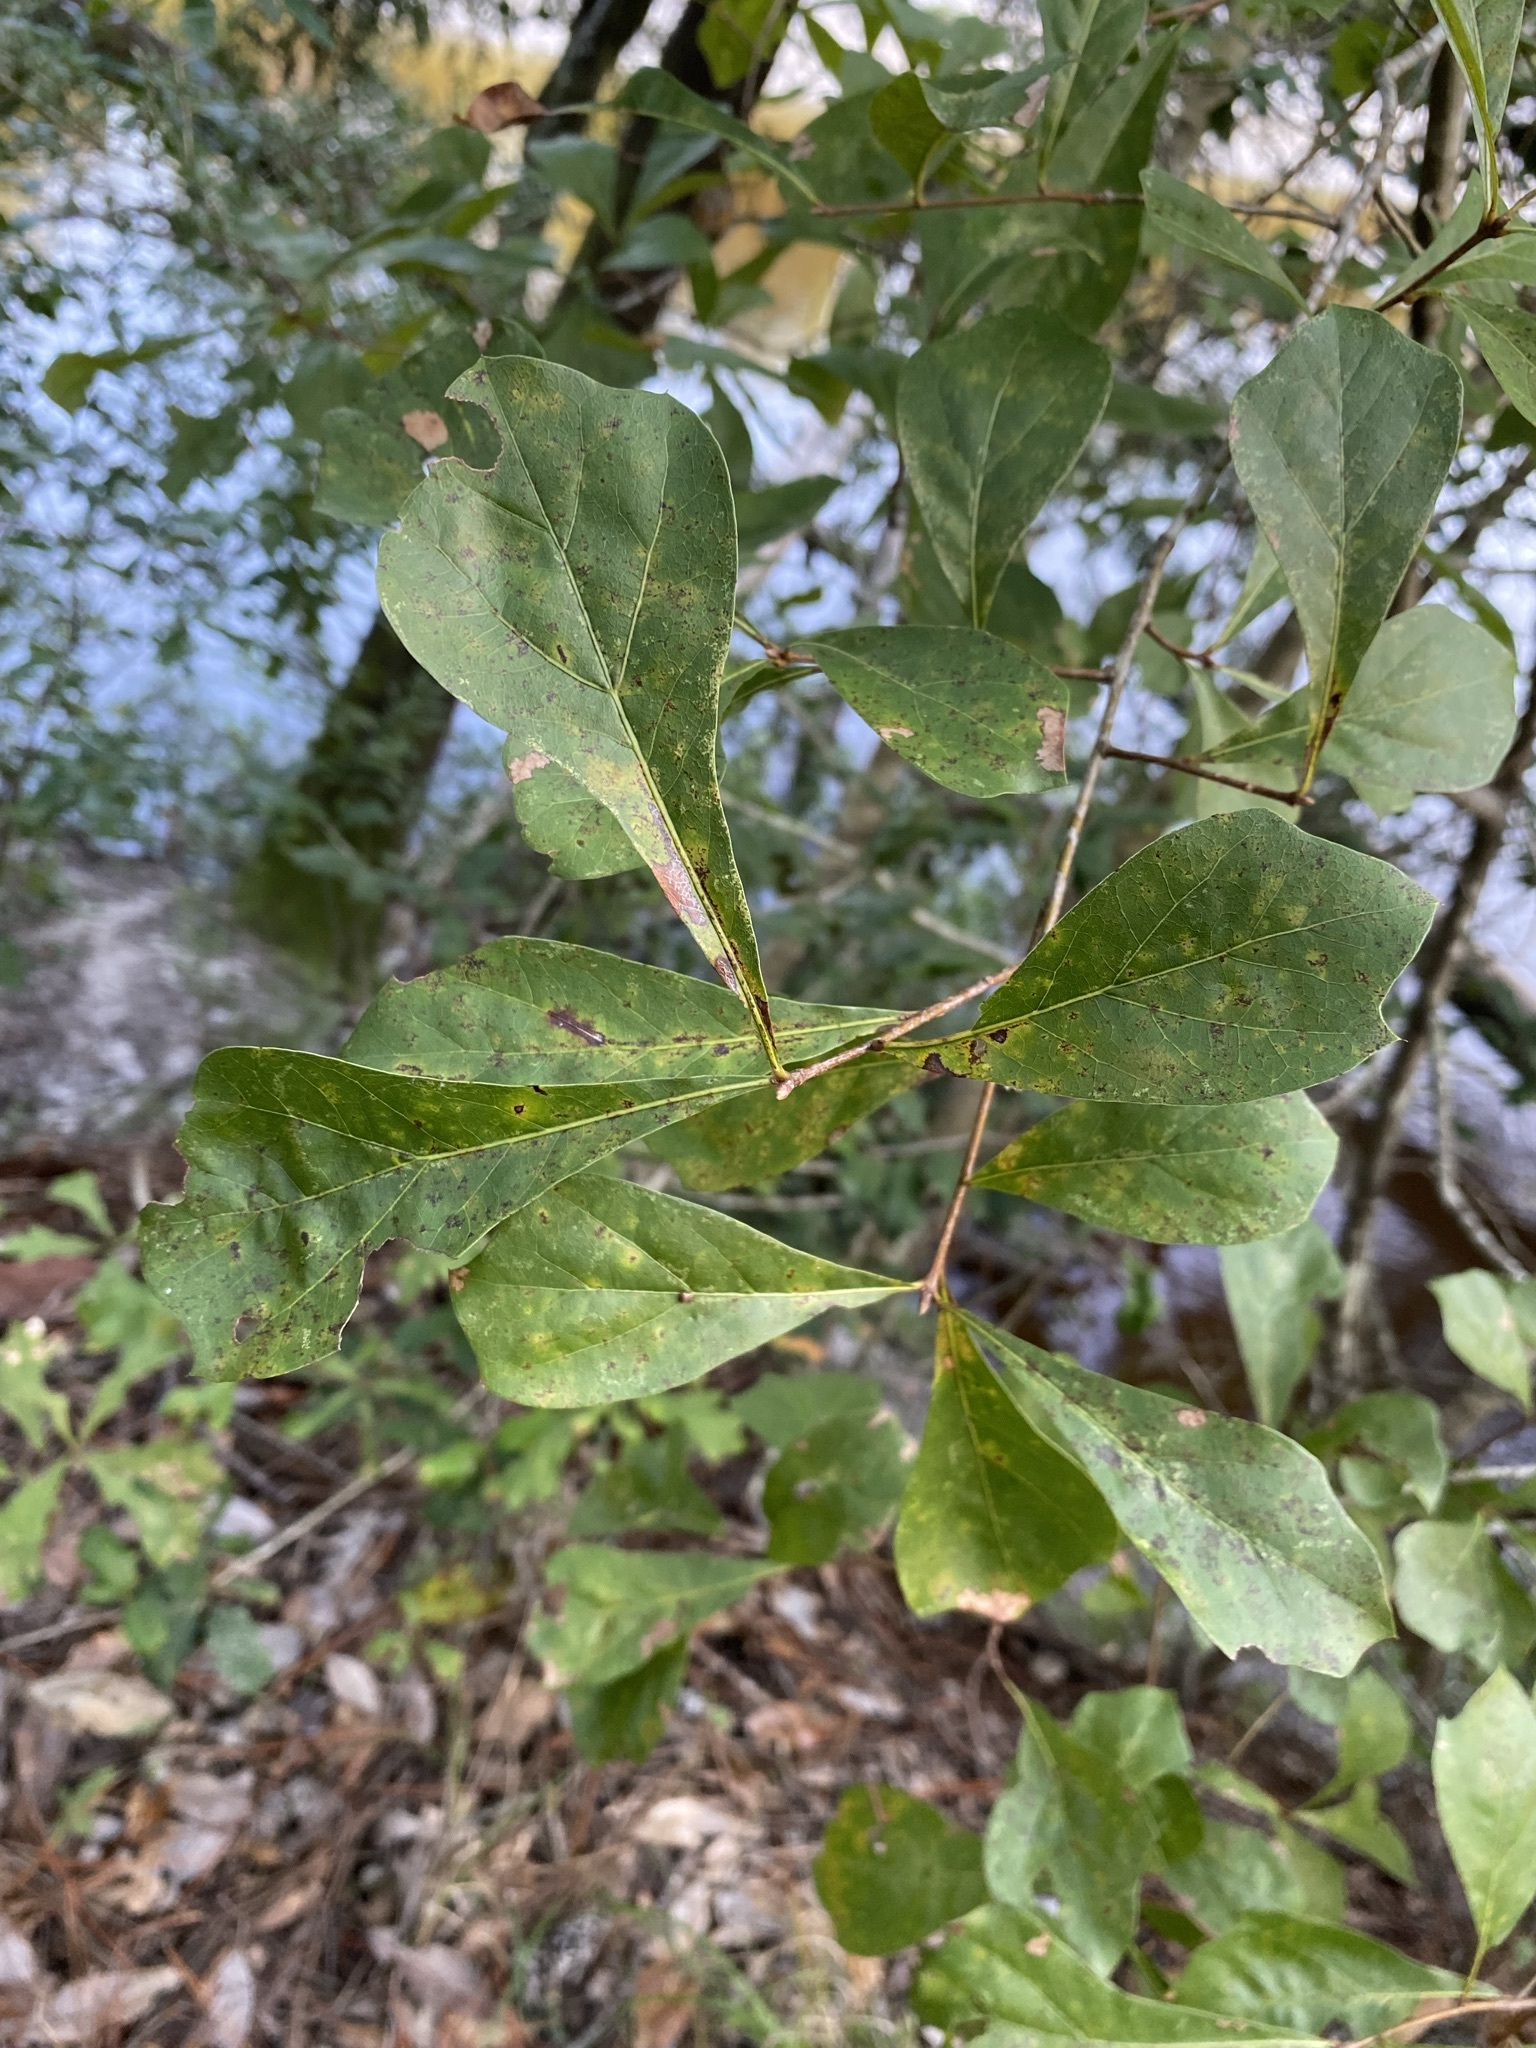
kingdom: Plantae
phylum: Tracheophyta
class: Magnoliopsida
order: Fagales
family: Fagaceae
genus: Quercus
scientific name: Quercus nigra
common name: Water oak
